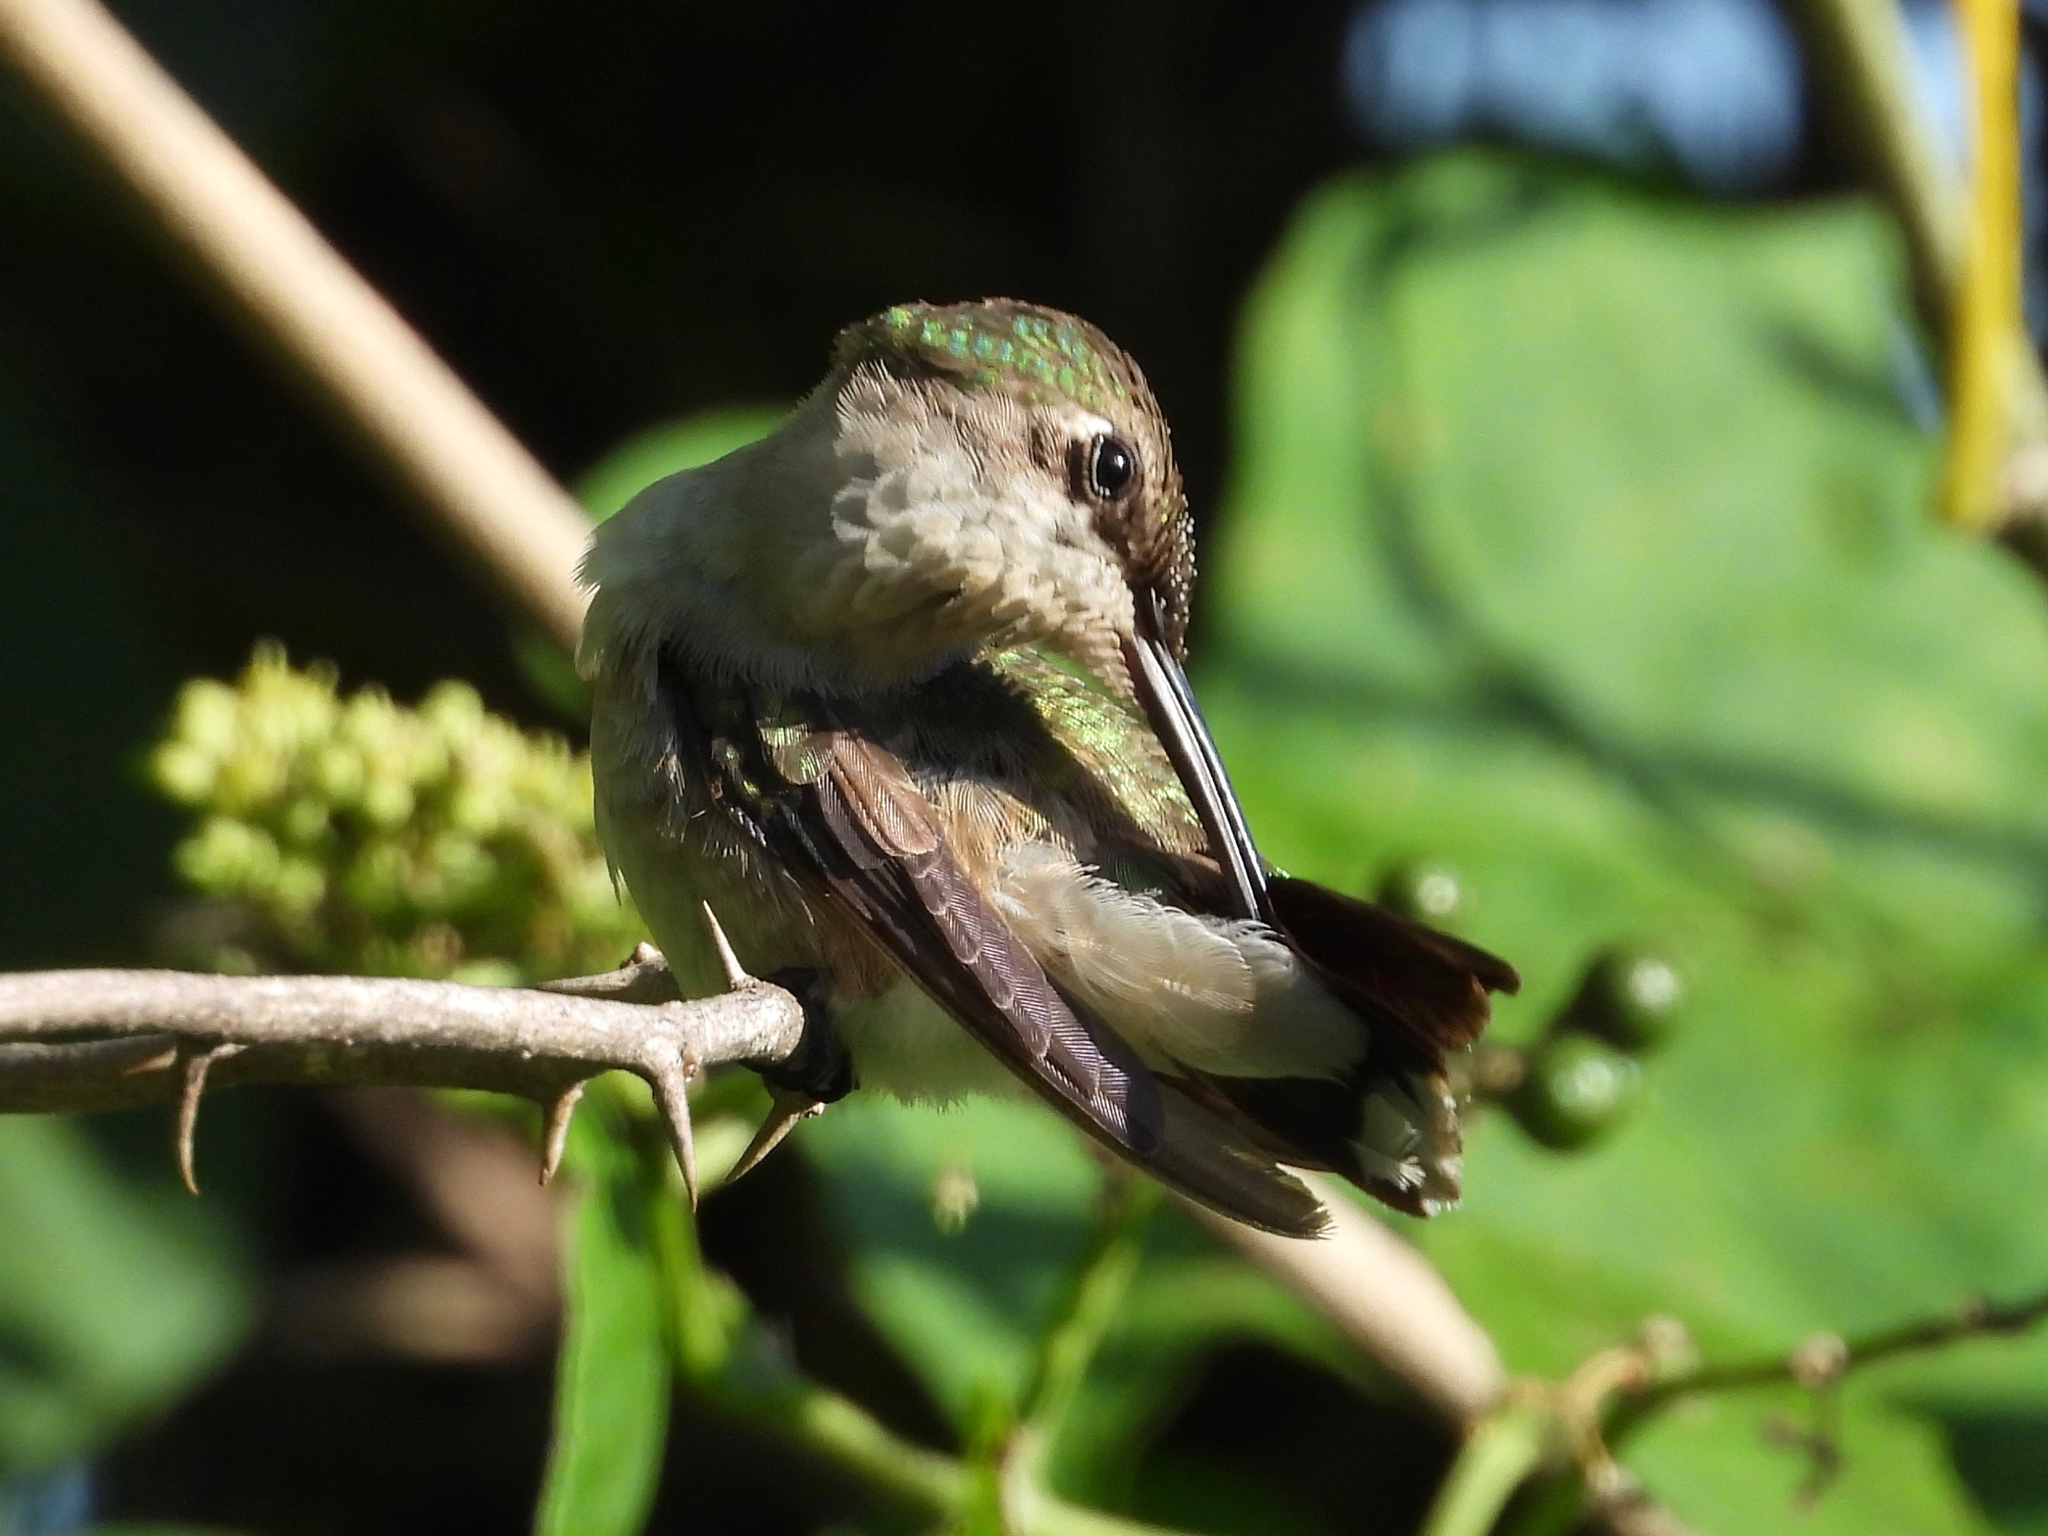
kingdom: Animalia
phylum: Chordata
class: Aves
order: Apodiformes
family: Trochilidae
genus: Archilochus
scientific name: Archilochus colubris
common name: Ruby-throated hummingbird
